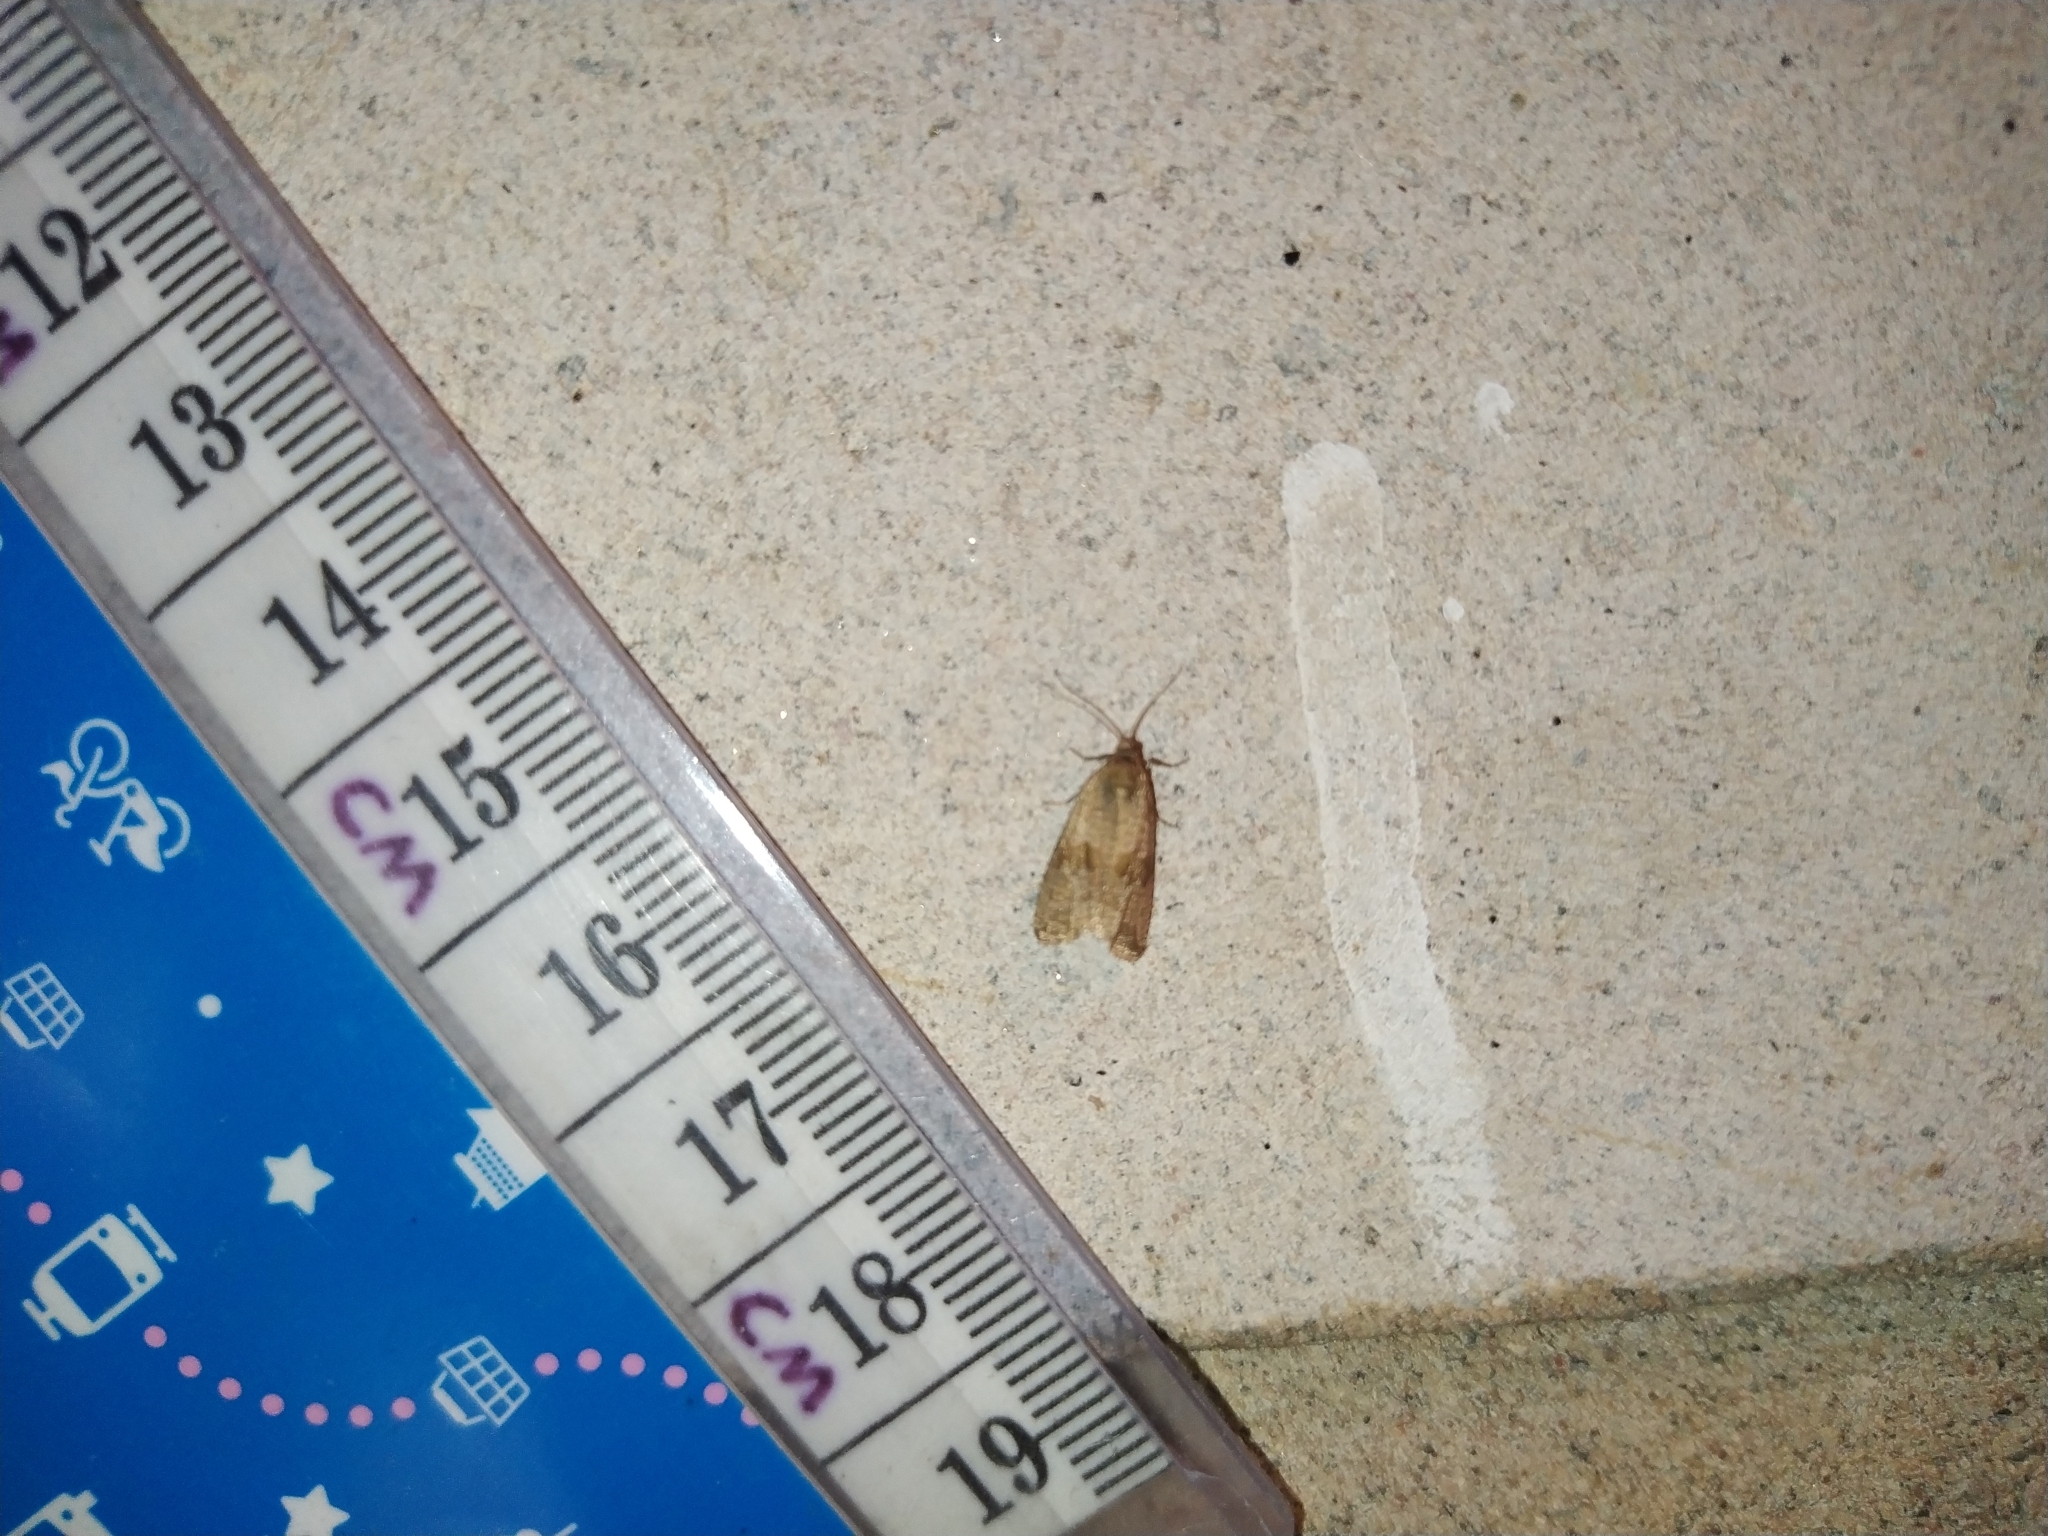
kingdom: Animalia
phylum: Arthropoda
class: Insecta
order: Lepidoptera
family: Tortricidae
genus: Celypha
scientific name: Celypha striana
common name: Barred marble
